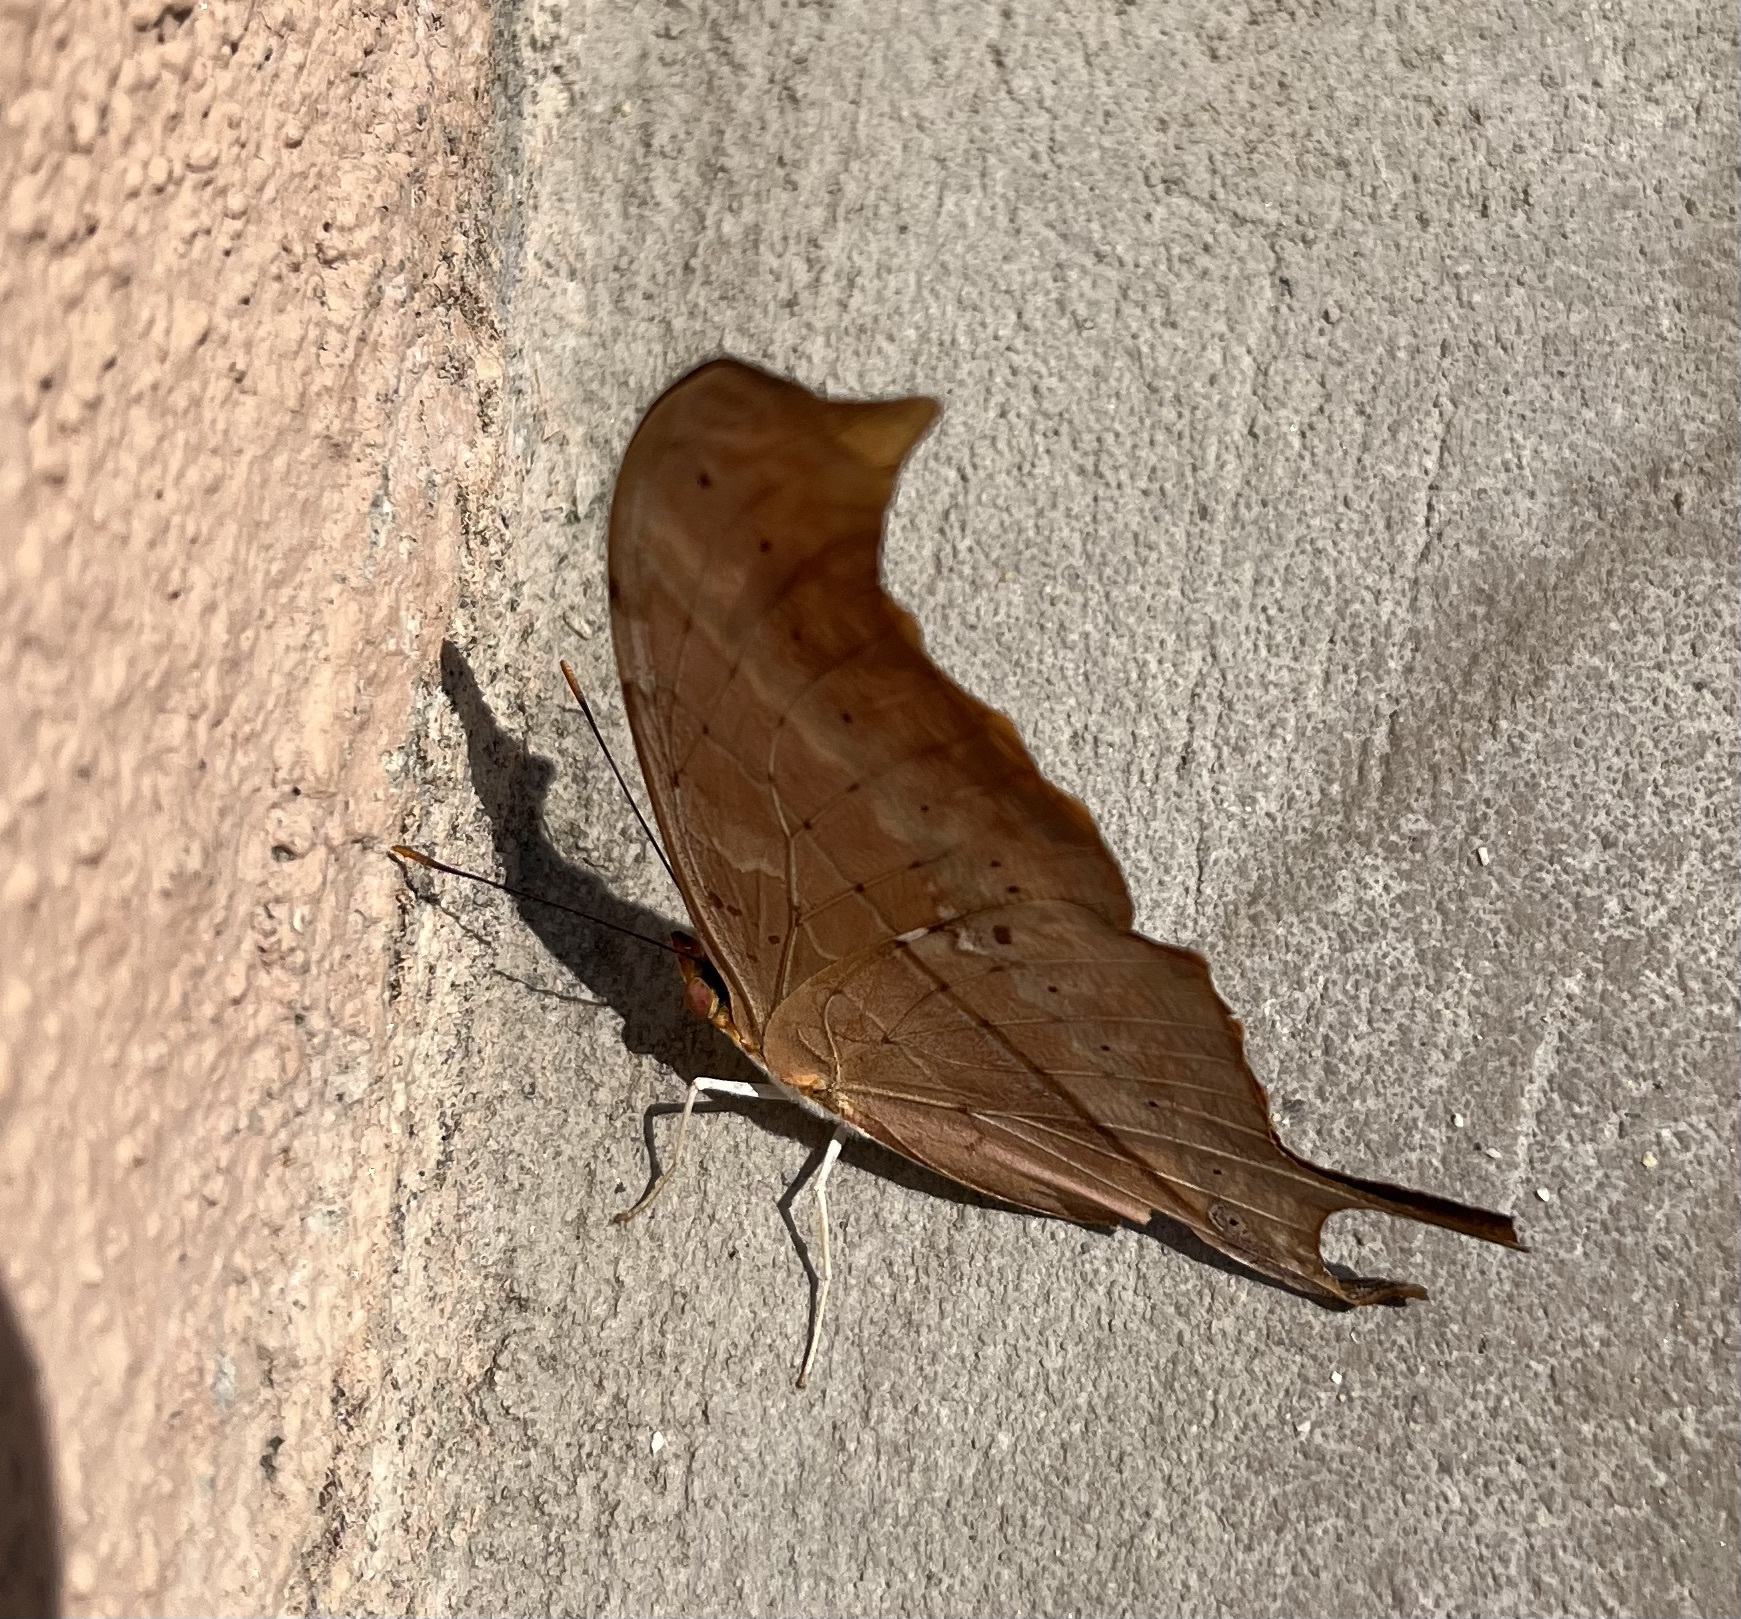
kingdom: Animalia
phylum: Arthropoda
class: Insecta
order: Lepidoptera
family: Nymphalidae
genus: Marpesia
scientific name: Marpesia petreus
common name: Red dagger wing
